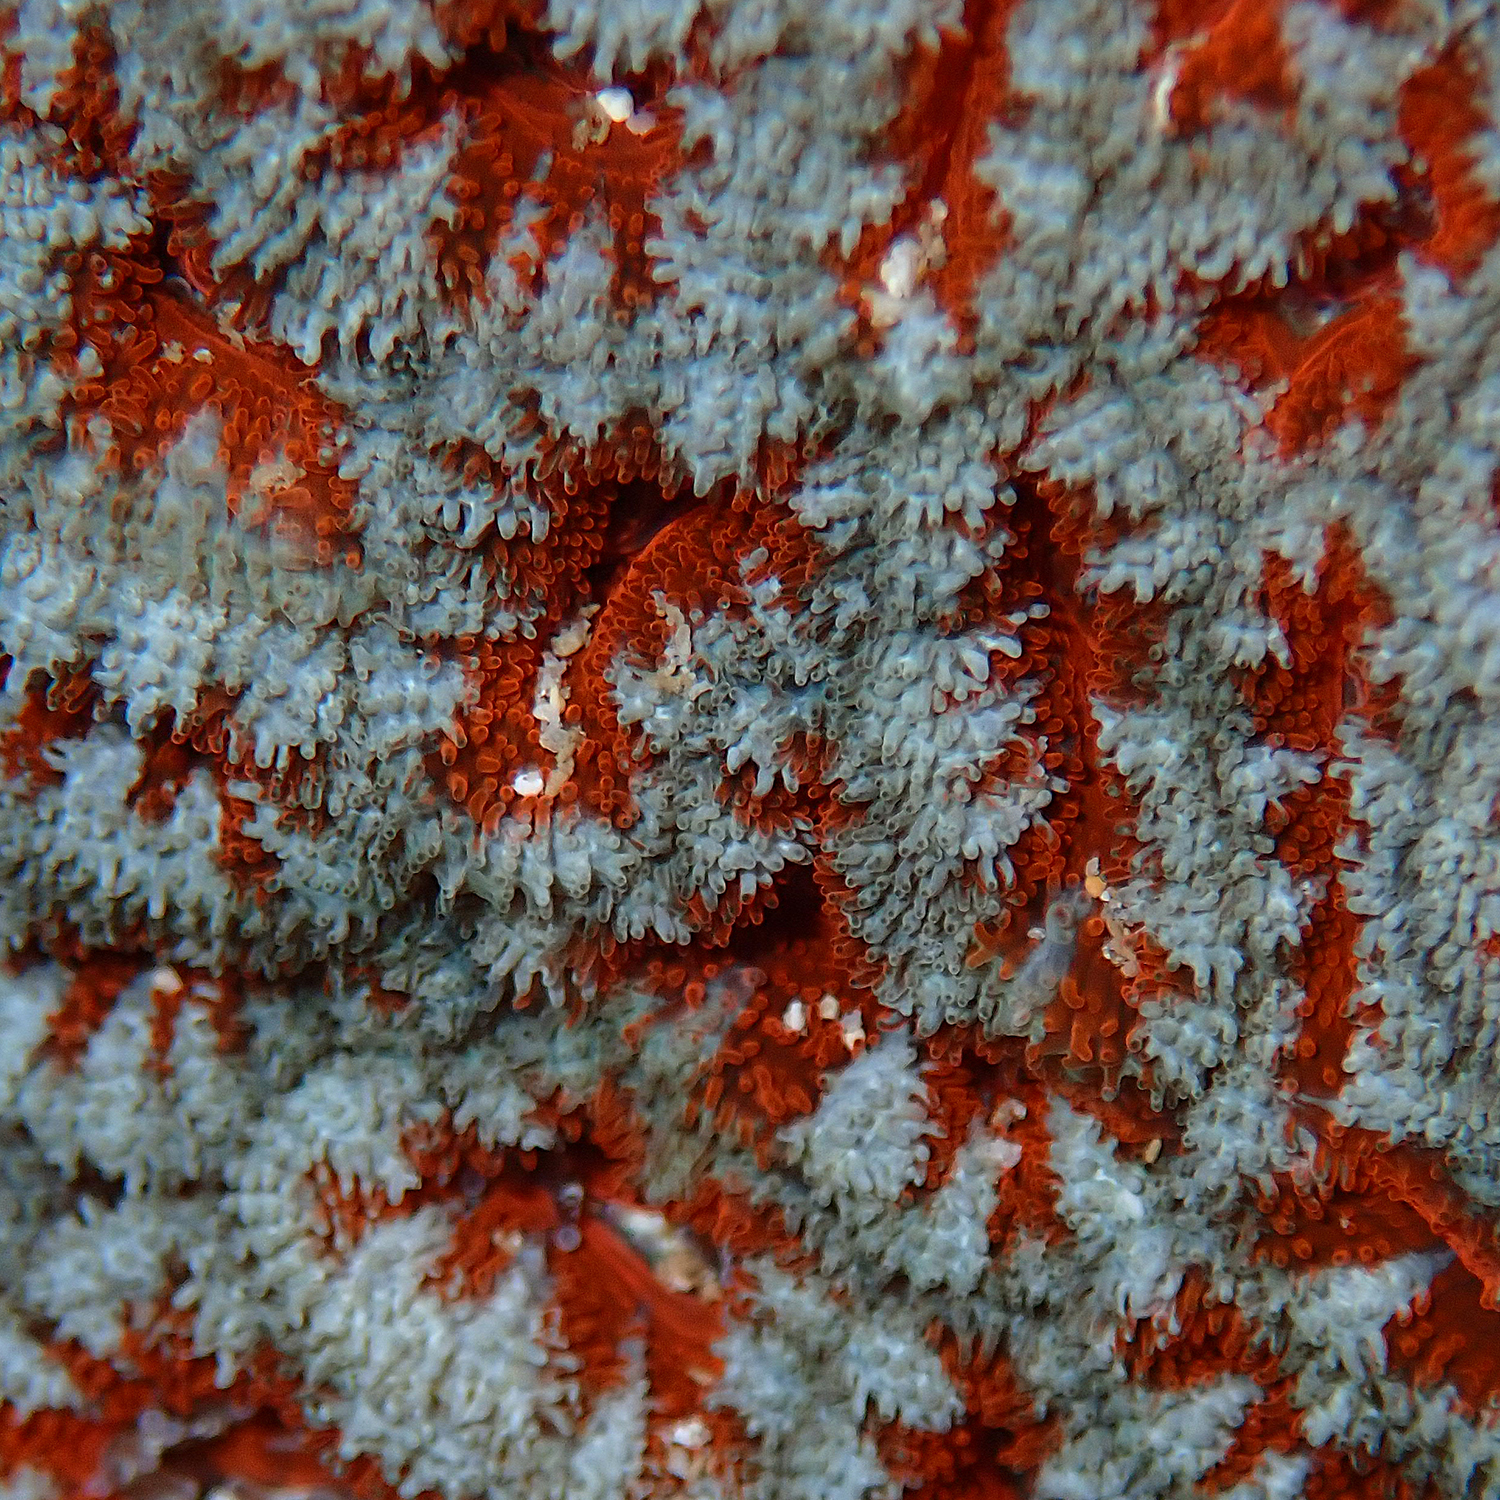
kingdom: Animalia
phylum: Cnidaria
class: Anthozoa
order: Scleractinia
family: Lobophylliidae
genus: Micromussa
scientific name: Micromussa lordhowensis
